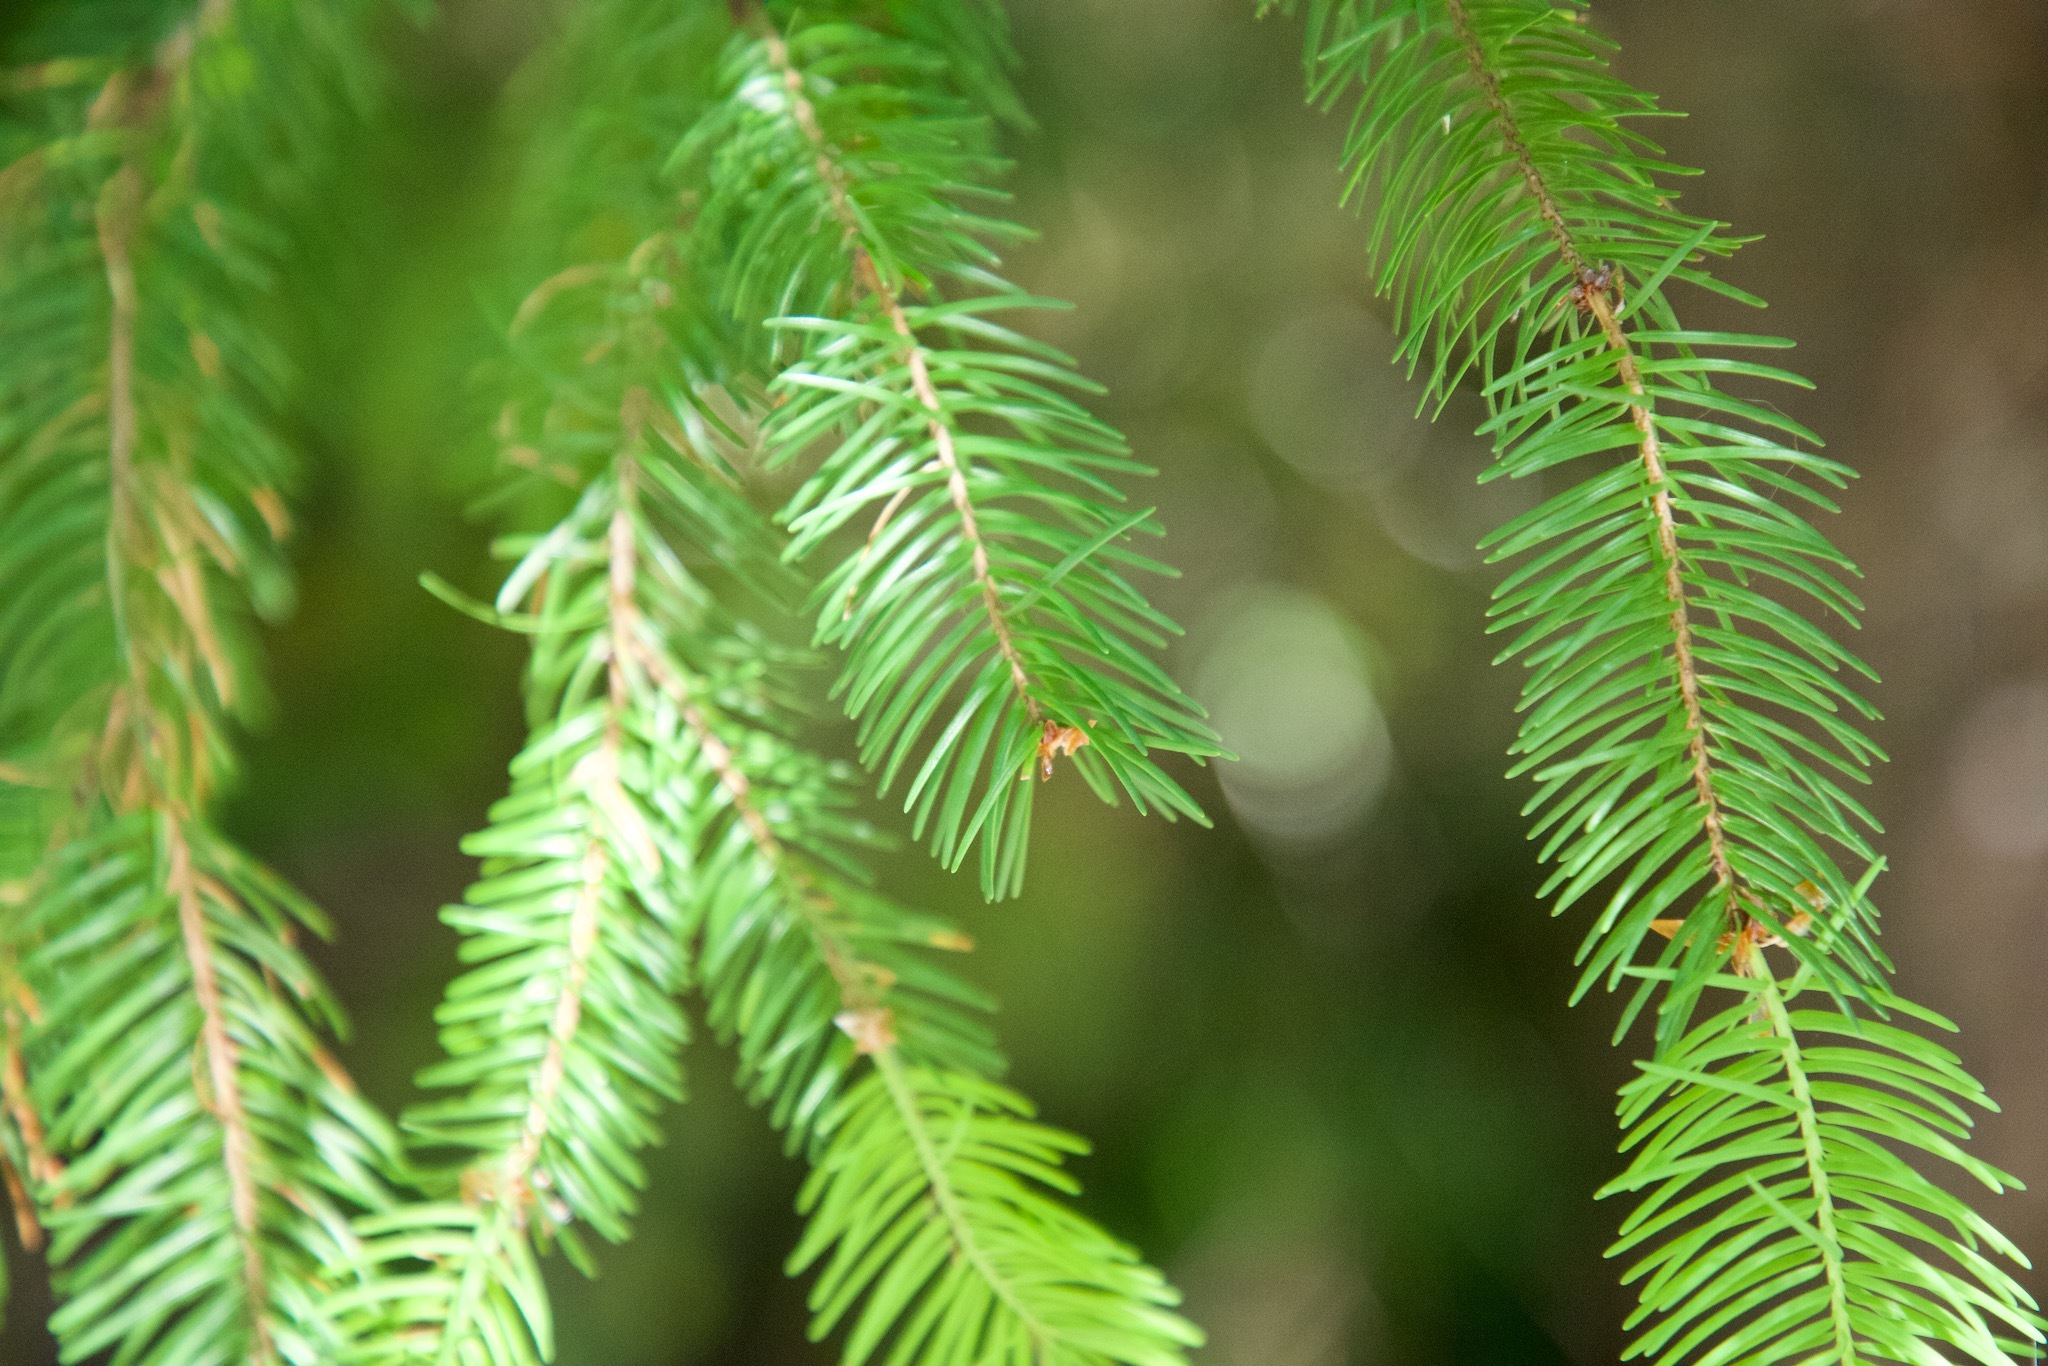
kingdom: Plantae
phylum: Tracheophyta
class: Pinopsida
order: Pinales
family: Pinaceae
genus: Pseudotsuga
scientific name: Pseudotsuga menziesii
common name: Douglas fir
